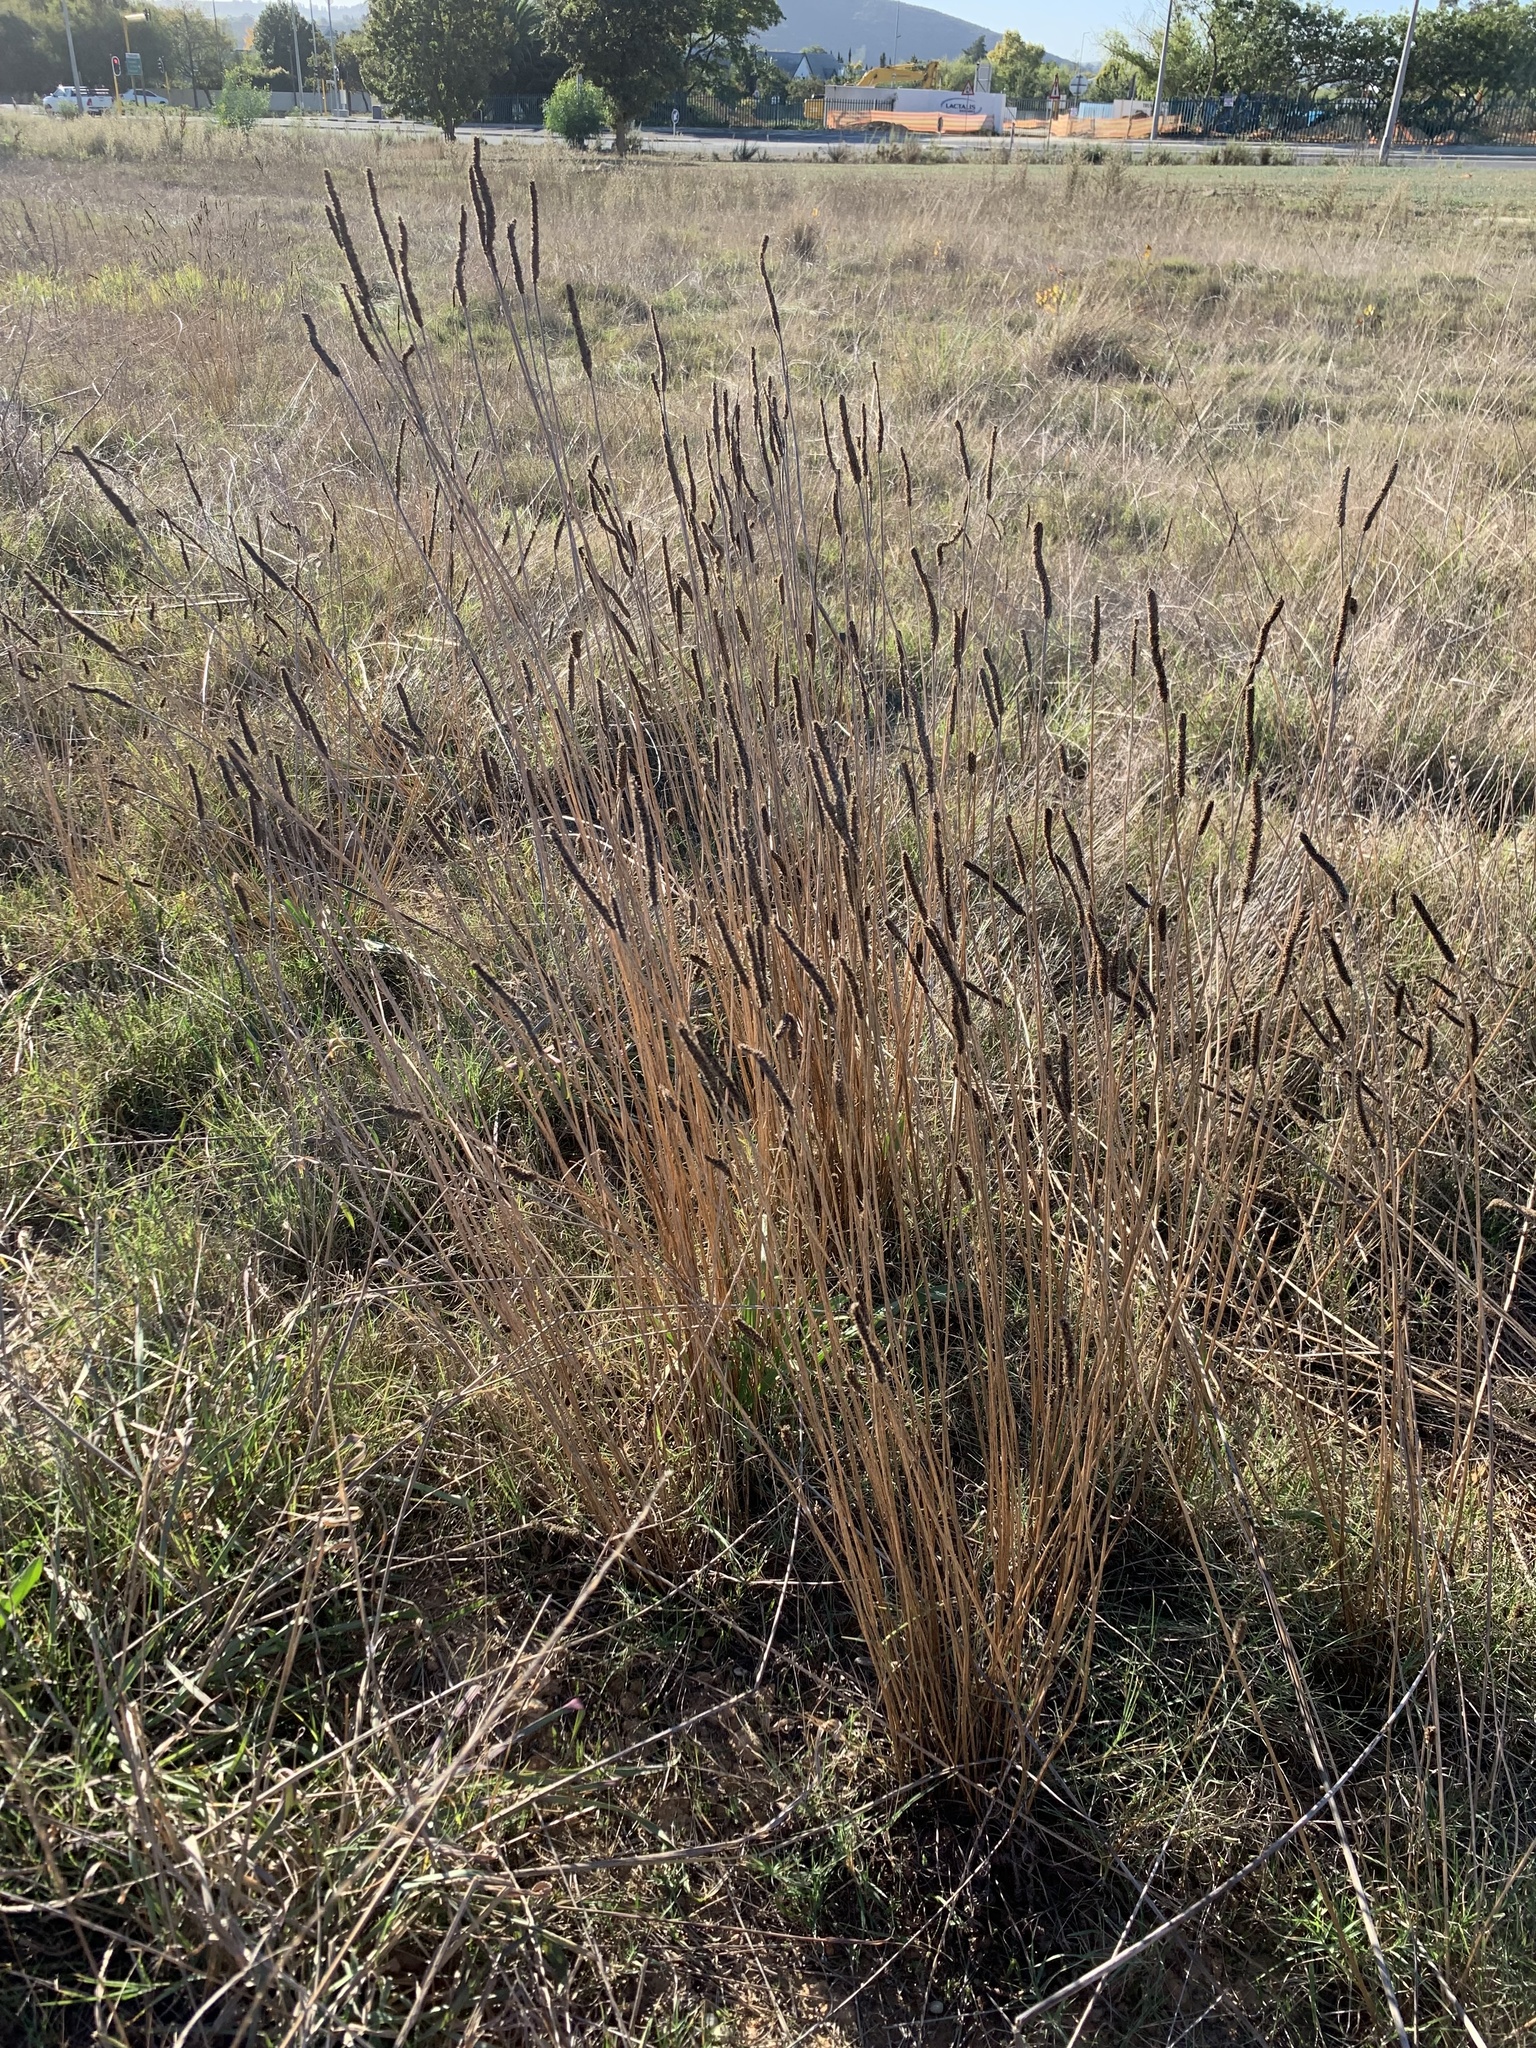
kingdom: Plantae
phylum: Tracheophyta
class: Magnoliopsida
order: Lamiales
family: Plantaginaceae
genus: Plantago
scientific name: Plantago lanceolata
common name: Ribwort plantain
